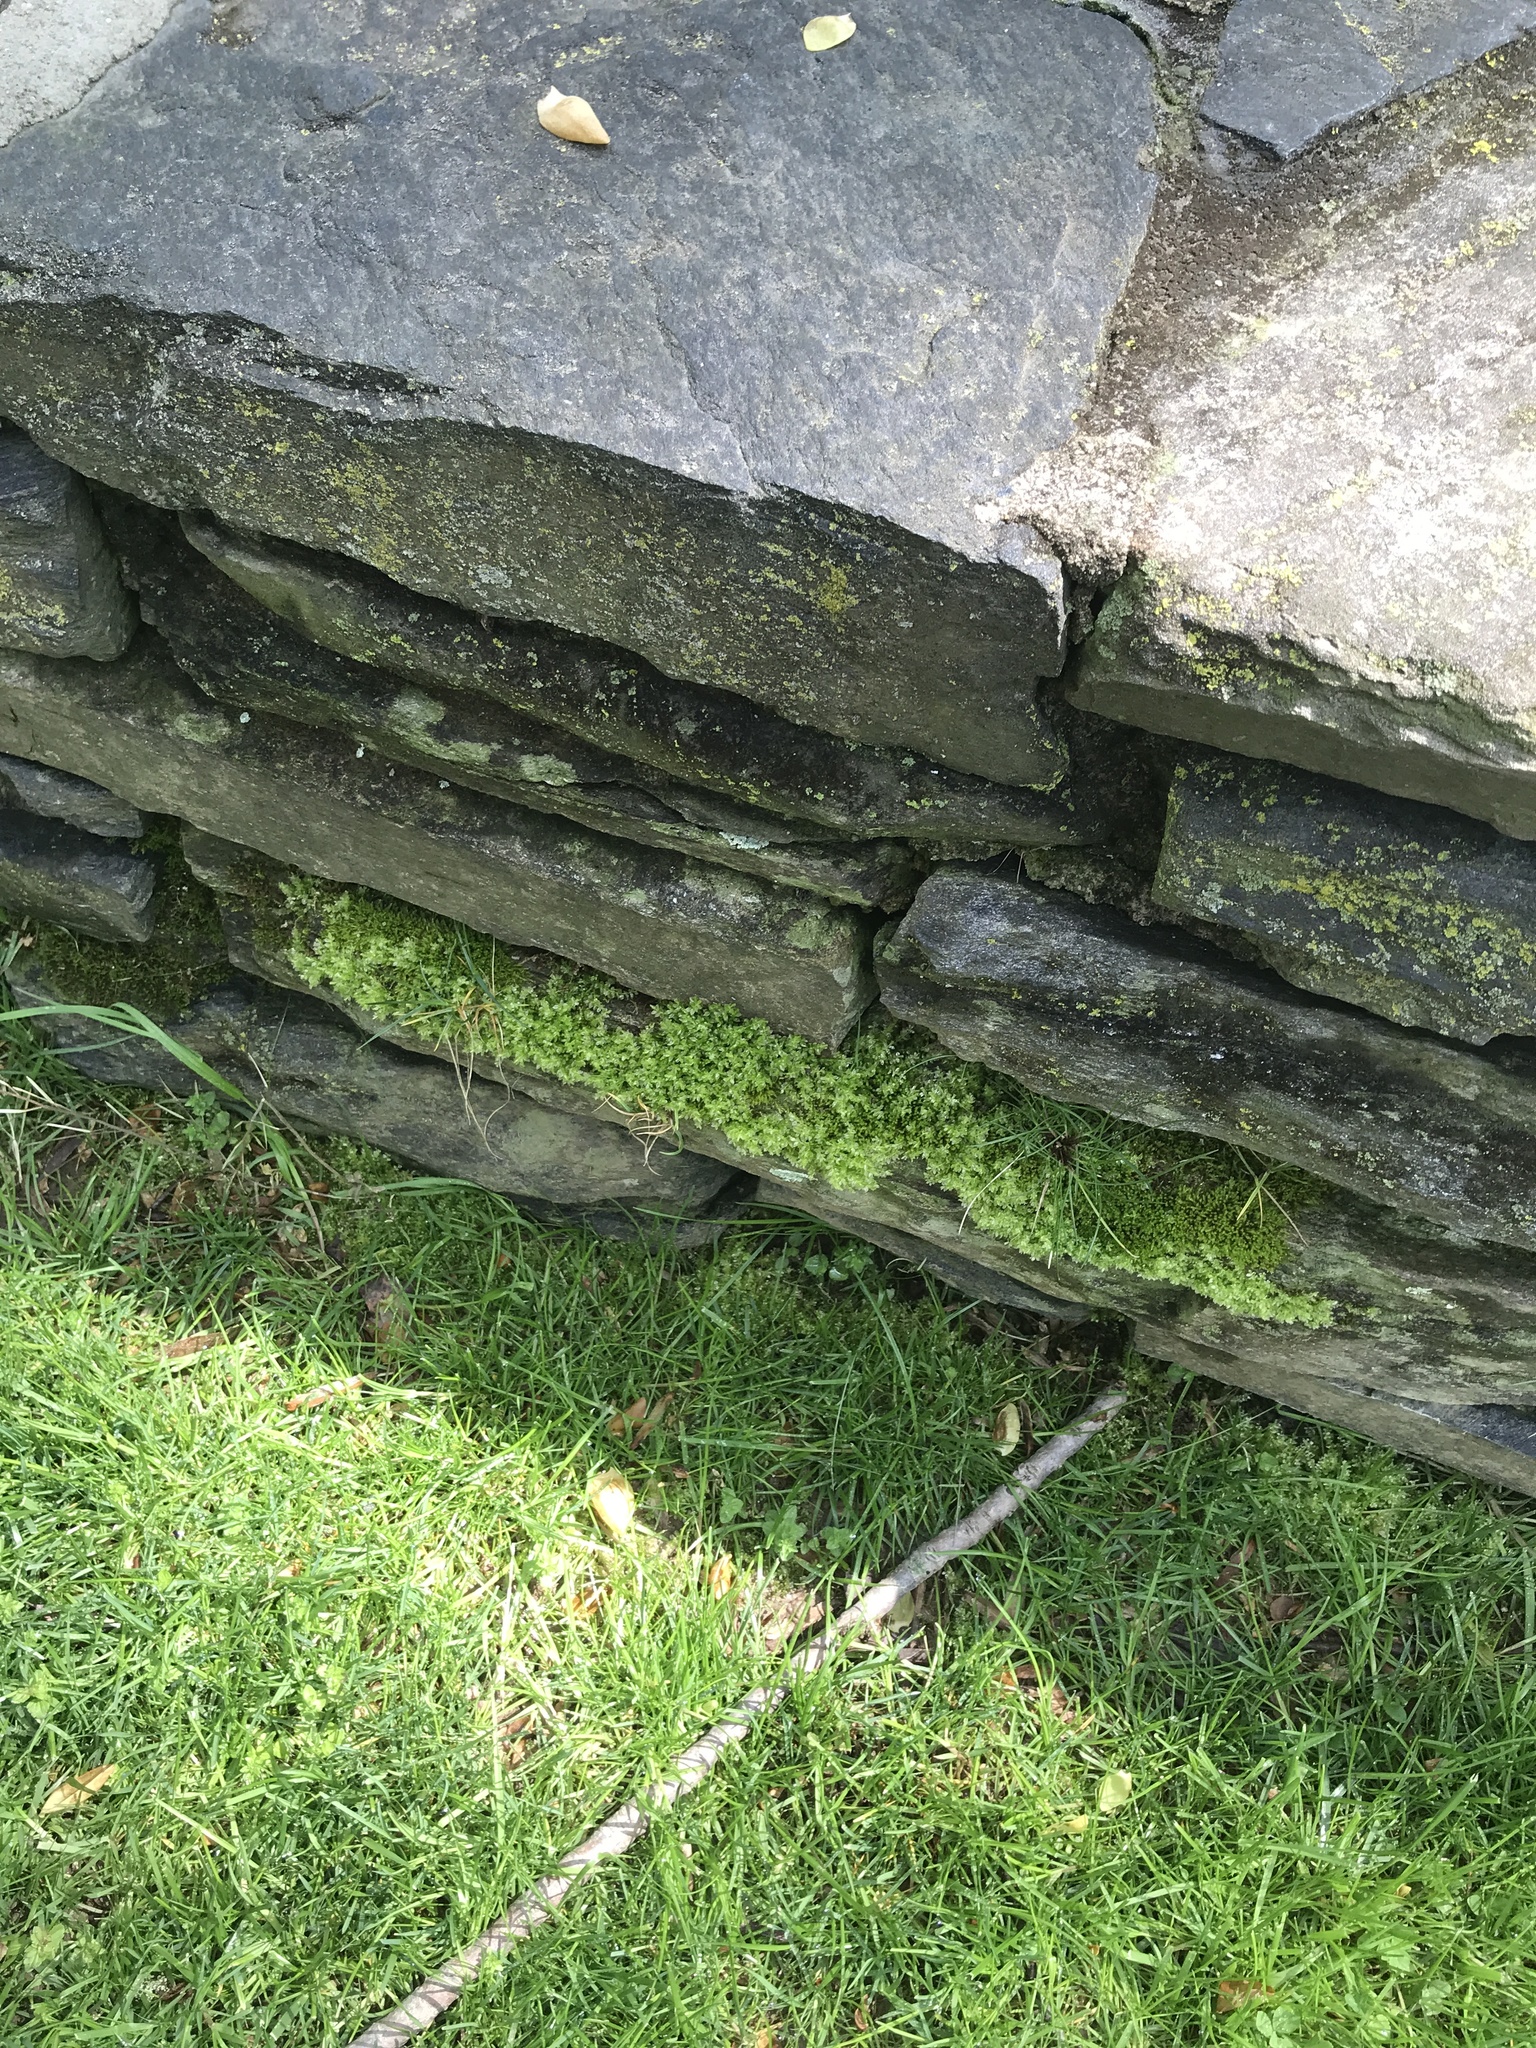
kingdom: Plantae
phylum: Bryophyta
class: Bryopsida
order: Bryales
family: Mniaceae
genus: Plagiomnium
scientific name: Plagiomnium cuspidatum
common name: Woodsy leafy moss
